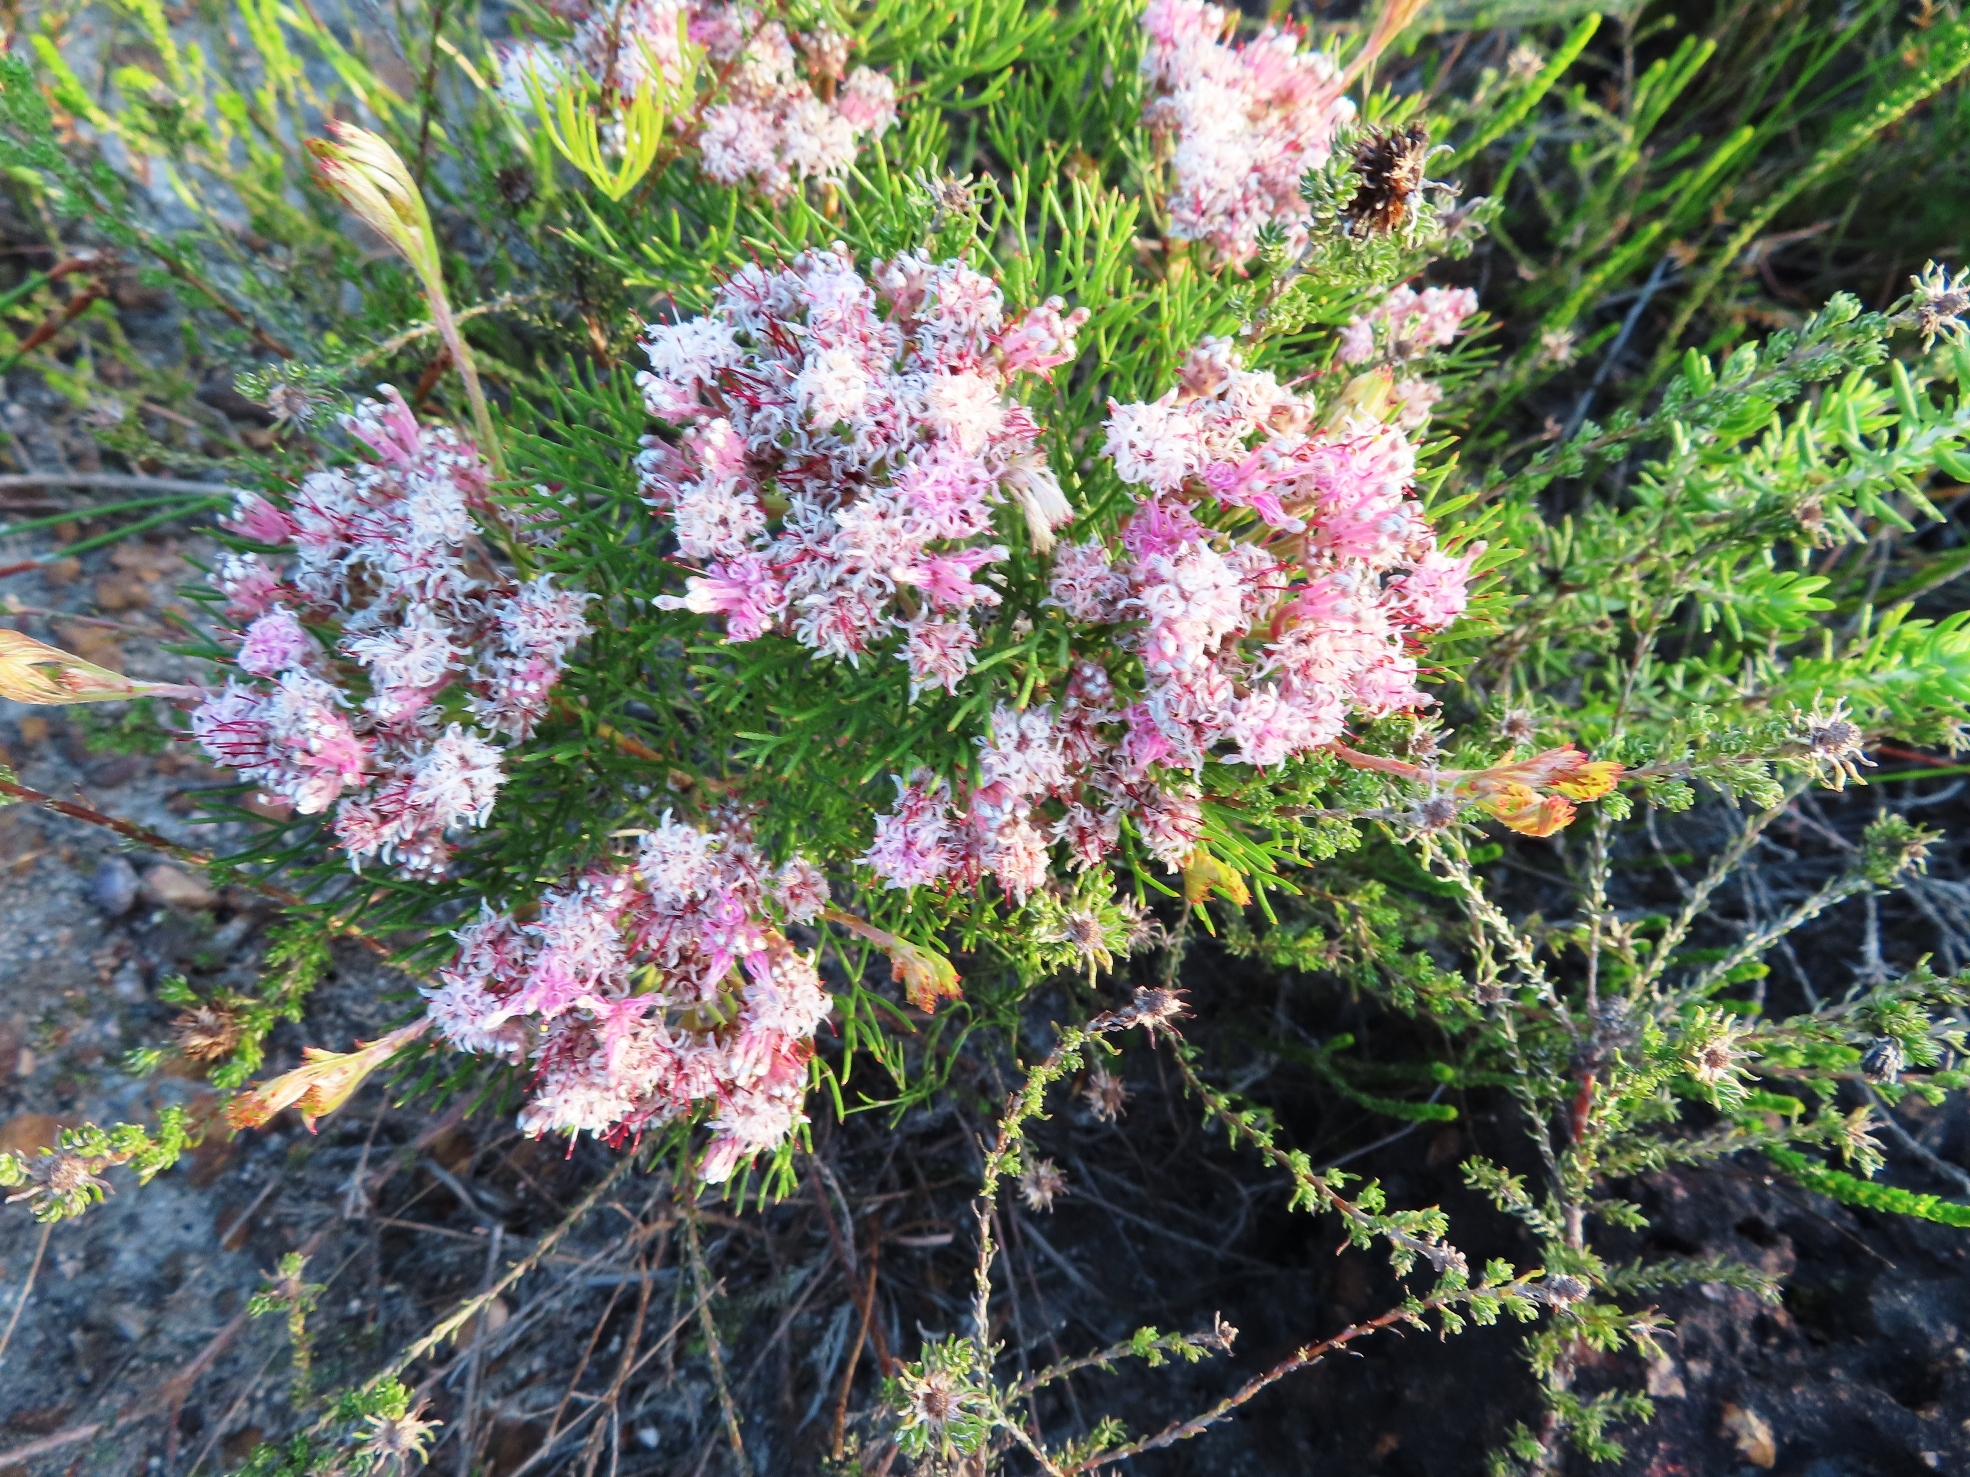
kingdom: Plantae
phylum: Tracheophyta
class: Magnoliopsida
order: Proteales
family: Proteaceae
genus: Serruria
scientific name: Serruria fasciflora
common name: Common pin spiderhead
